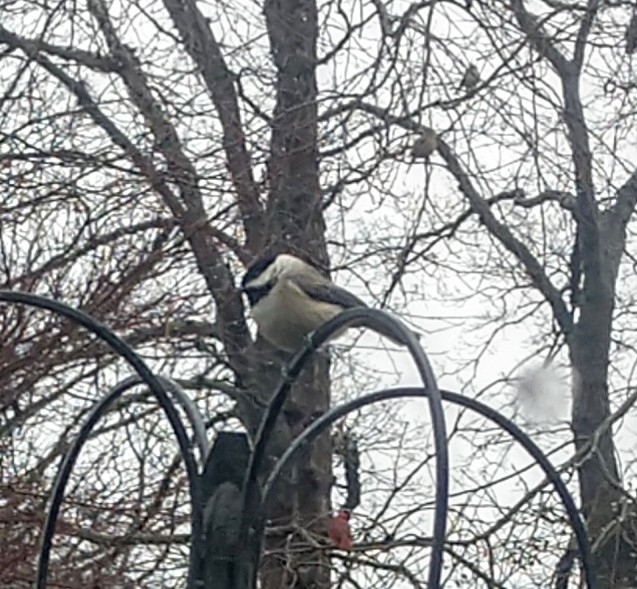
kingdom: Animalia
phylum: Chordata
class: Aves
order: Passeriformes
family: Paridae
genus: Poecile
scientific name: Poecile carolinensis
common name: Carolina chickadee
